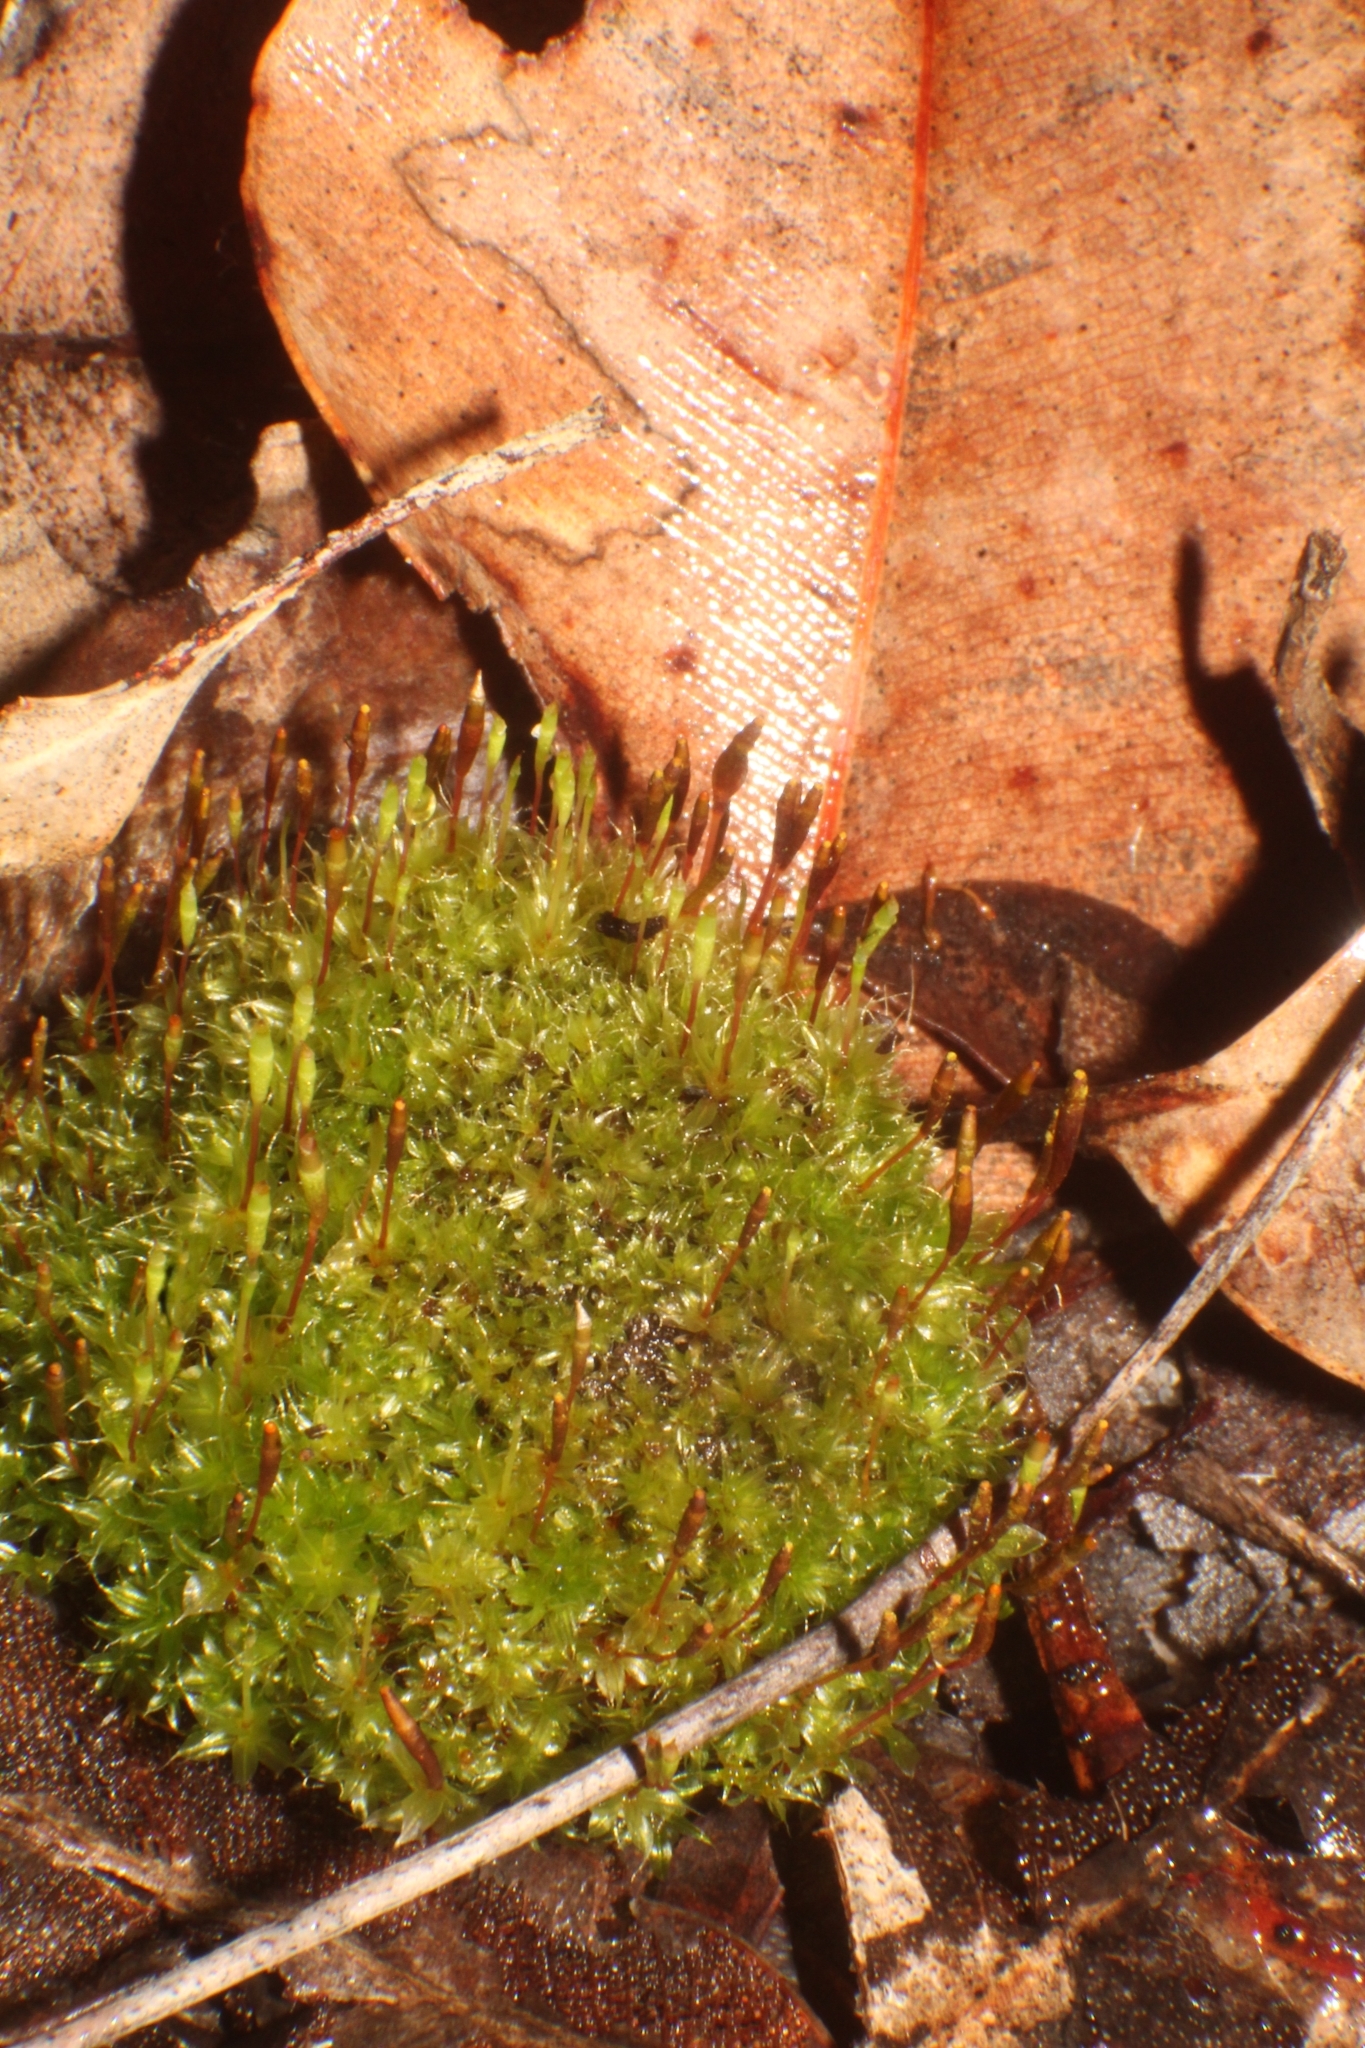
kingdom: Plantae
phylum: Bryophyta
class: Bryopsida
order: Splachnales
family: Splachnaceae
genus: Tayloria
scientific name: Tayloria octoblephara
